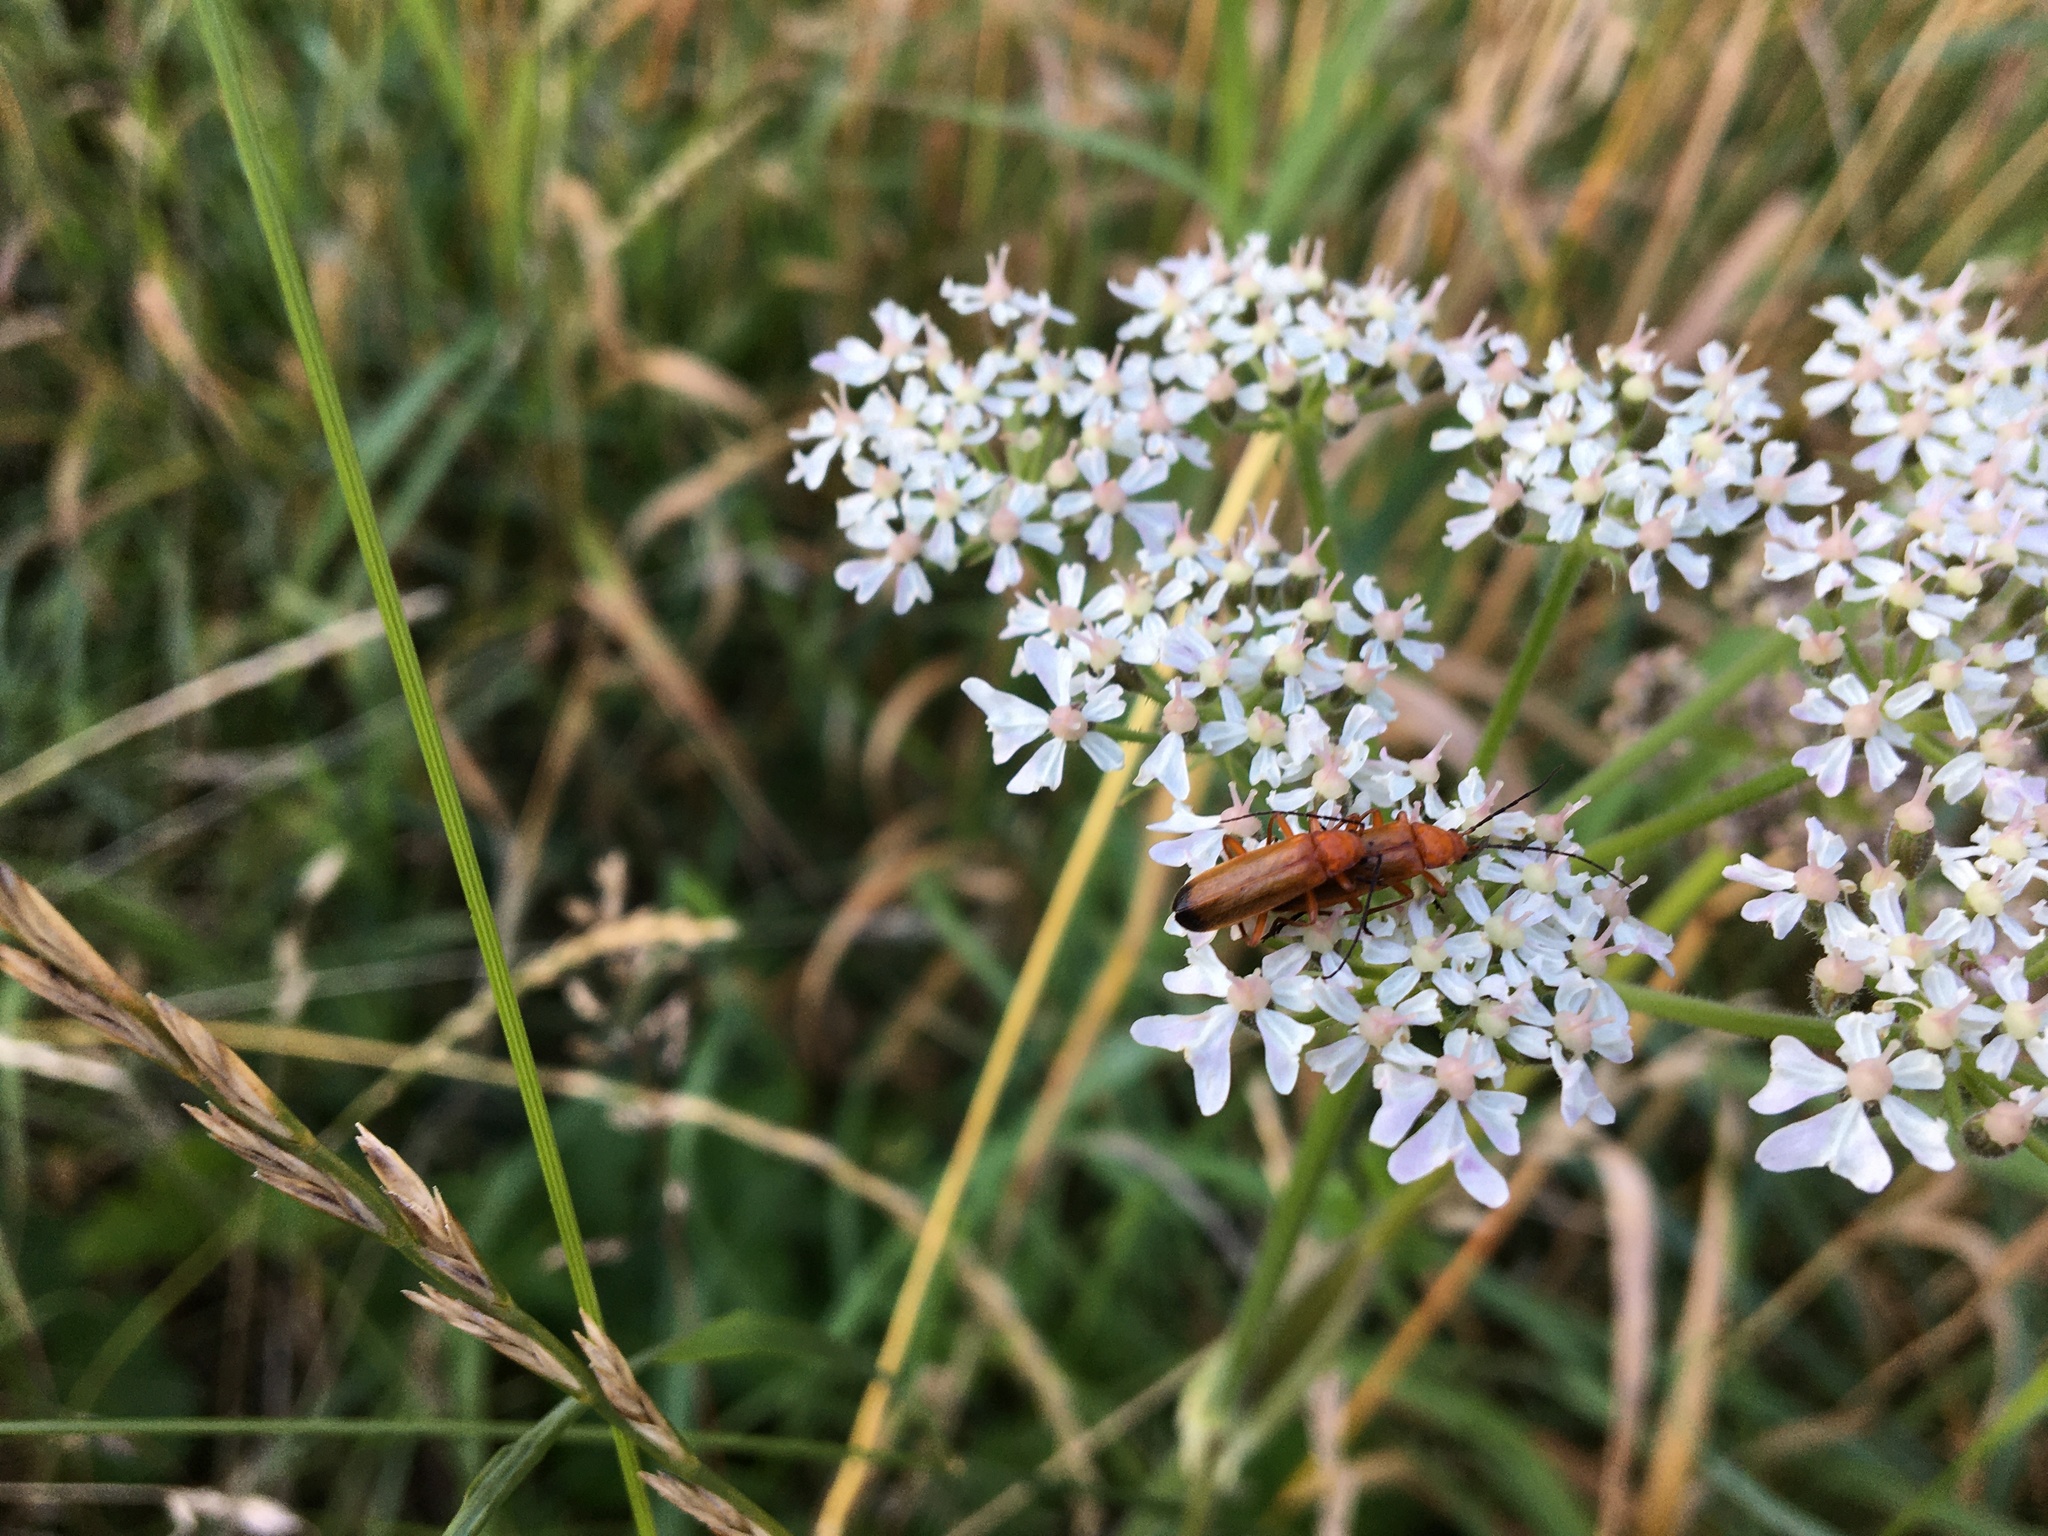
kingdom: Animalia
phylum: Arthropoda
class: Insecta
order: Coleoptera
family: Cantharidae
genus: Rhagonycha
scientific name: Rhagonycha fulva
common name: Common red soldier beetle
